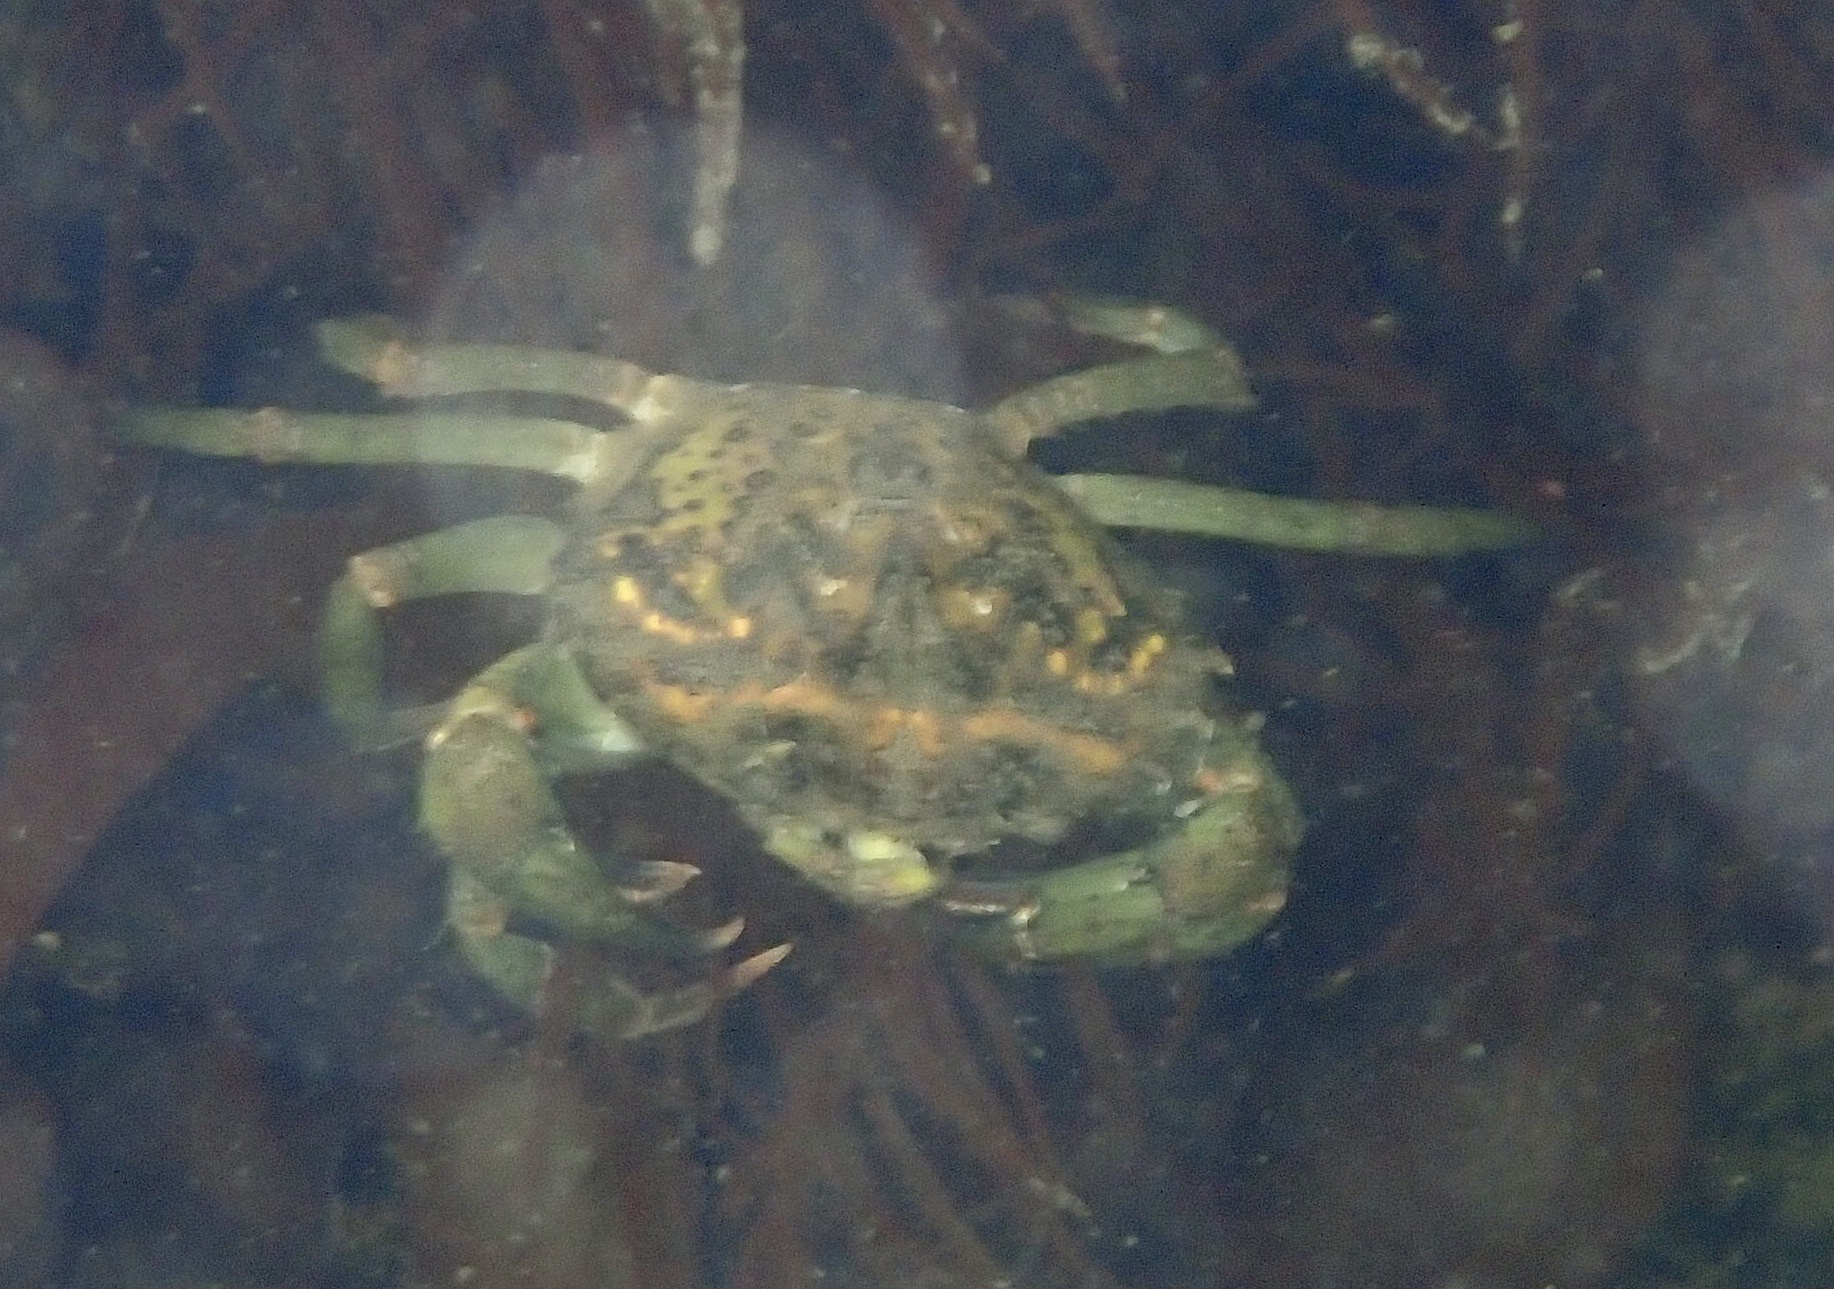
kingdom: Animalia
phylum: Arthropoda
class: Malacostraca
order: Decapoda
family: Carcinidae
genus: Carcinus
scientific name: Carcinus maenas
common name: European green crab
